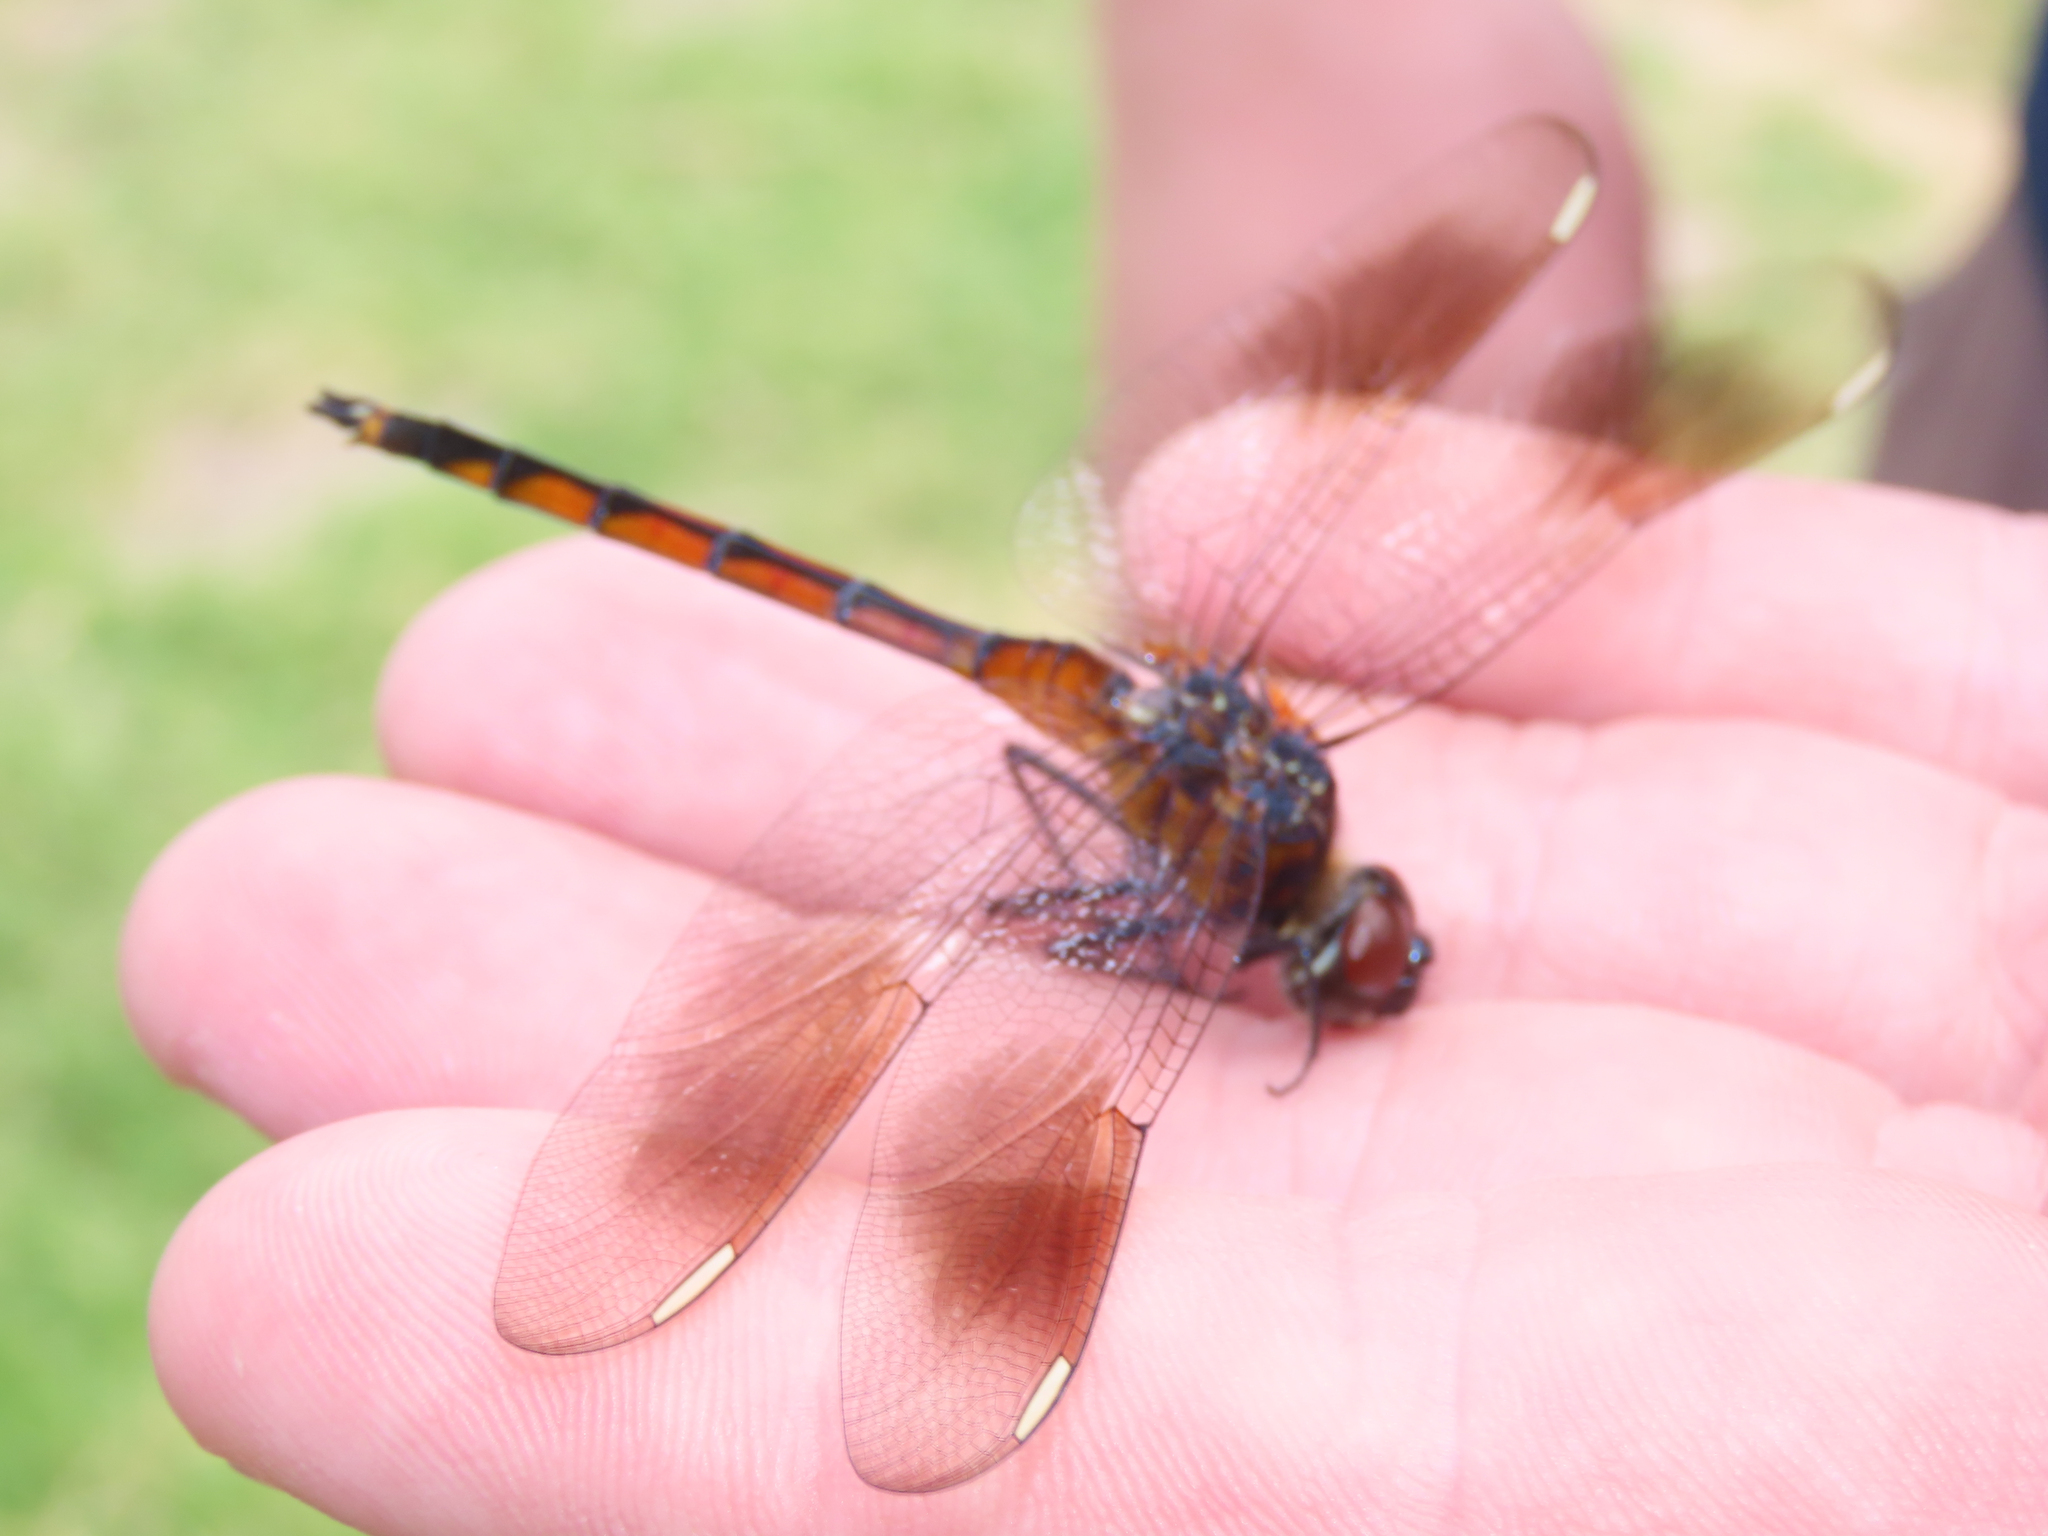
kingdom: Animalia
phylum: Arthropoda
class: Insecta
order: Odonata
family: Libellulidae
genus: Brachymesia
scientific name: Brachymesia gravida
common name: Four-spotted pennant
